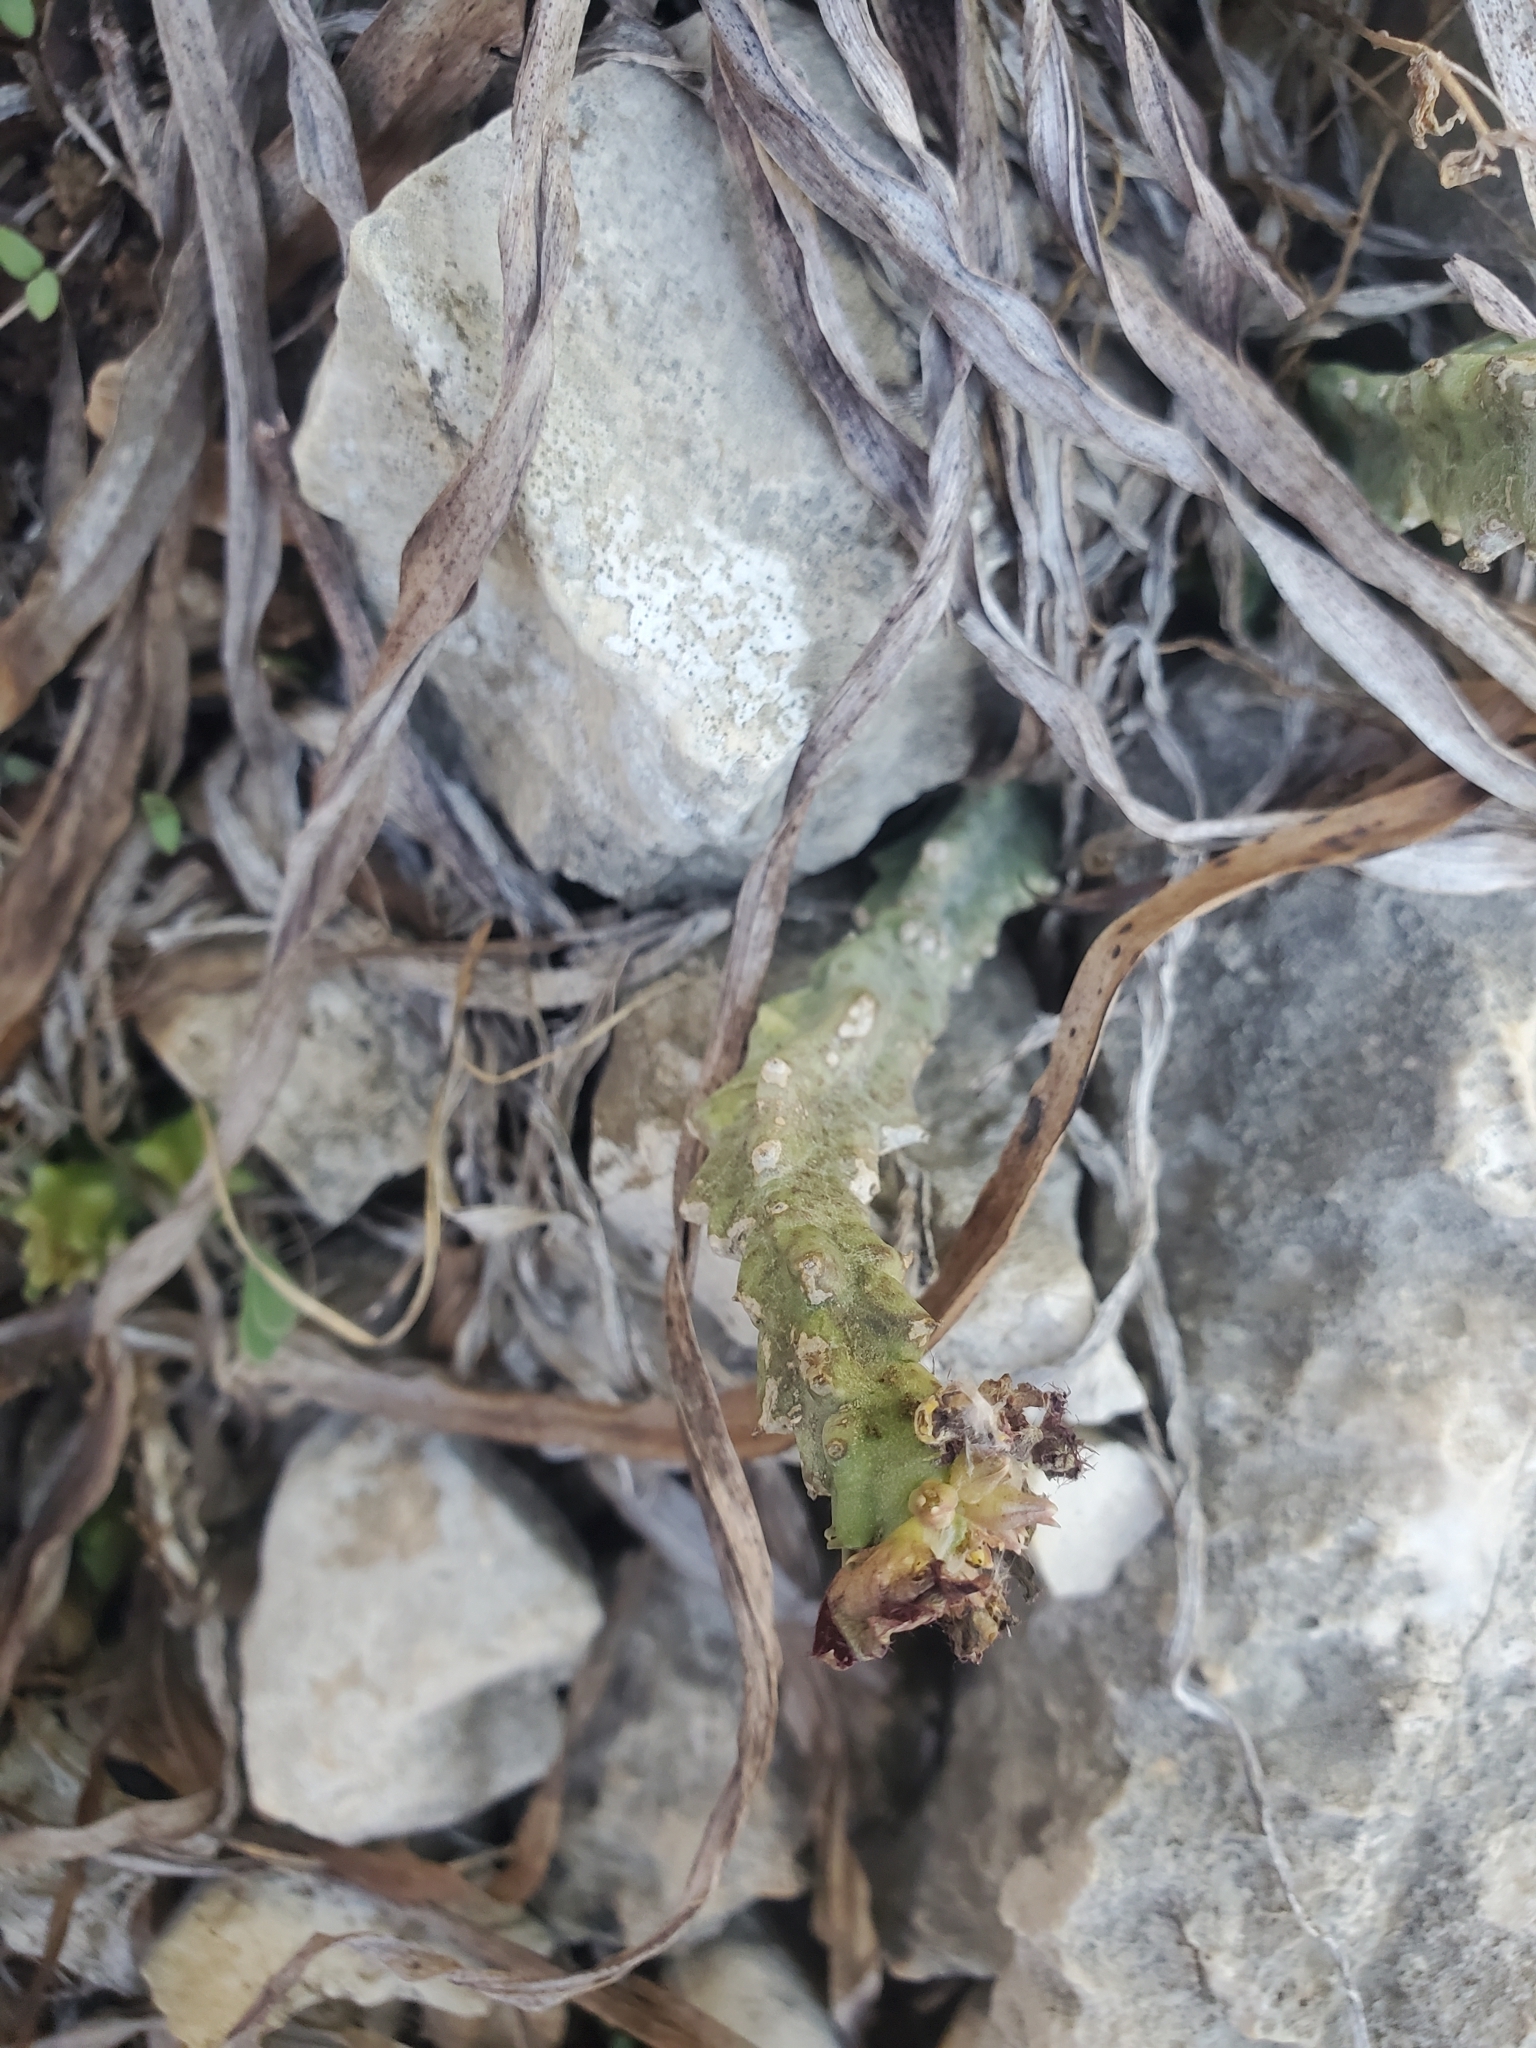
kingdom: Plantae
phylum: Tracheophyta
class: Magnoliopsida
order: Gentianales
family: Apocynaceae
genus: Ceropegia
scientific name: Ceropegia europaea
